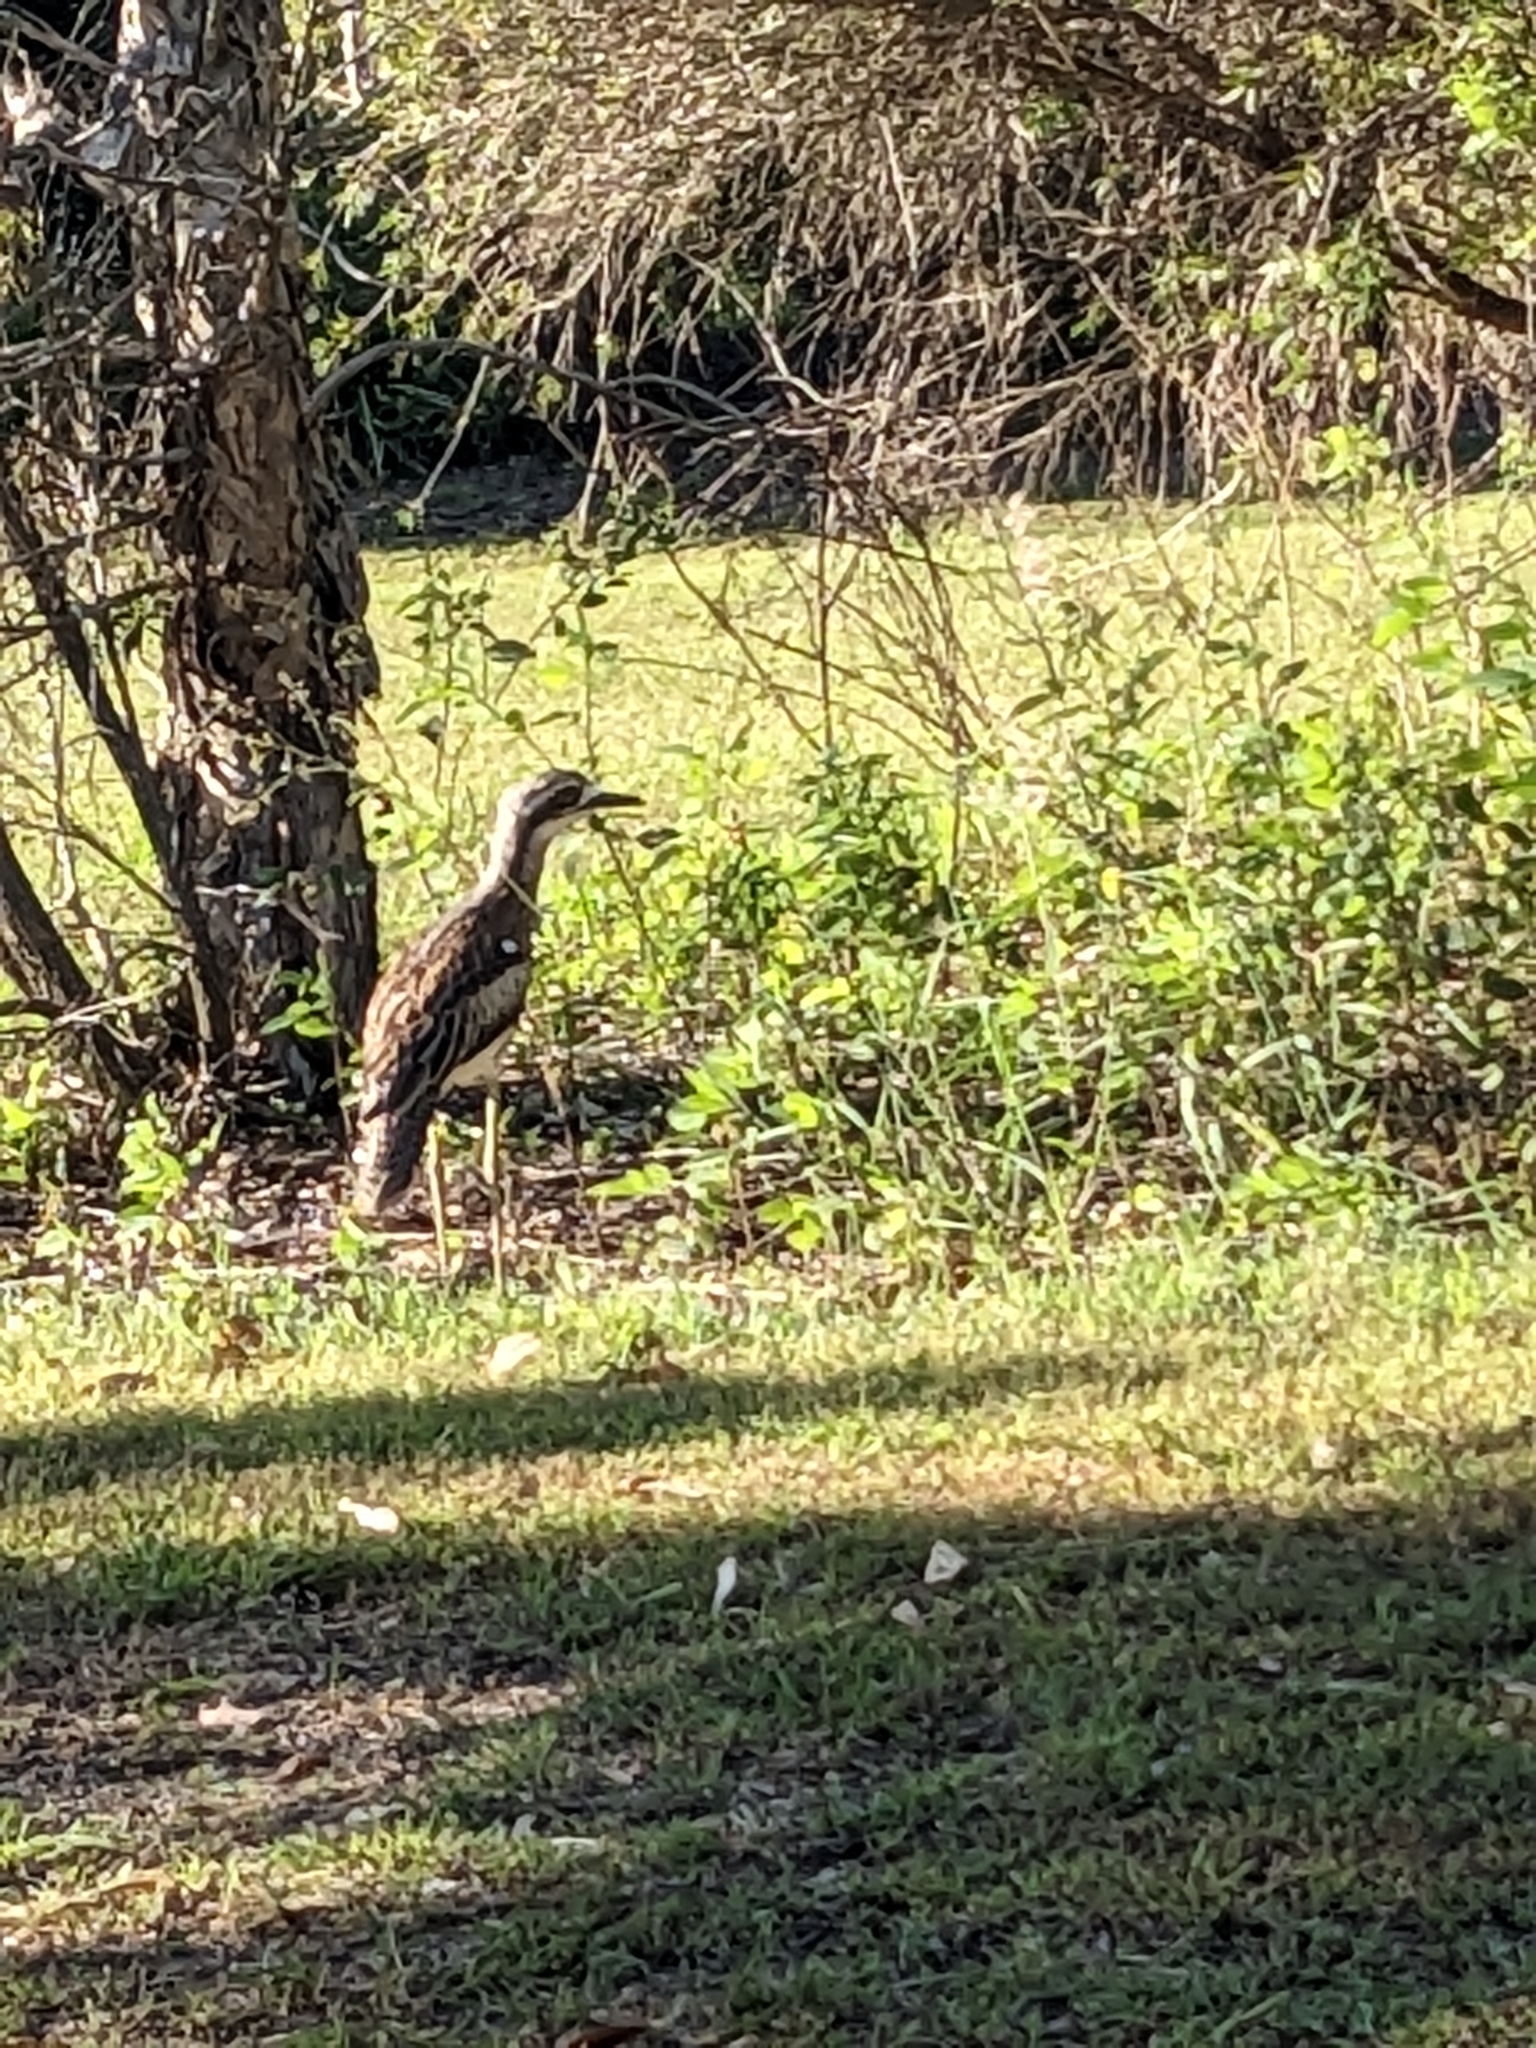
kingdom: Animalia
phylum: Chordata
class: Aves
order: Charadriiformes
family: Burhinidae
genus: Burhinus
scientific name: Burhinus grallarius
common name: Bush stone-curlew
